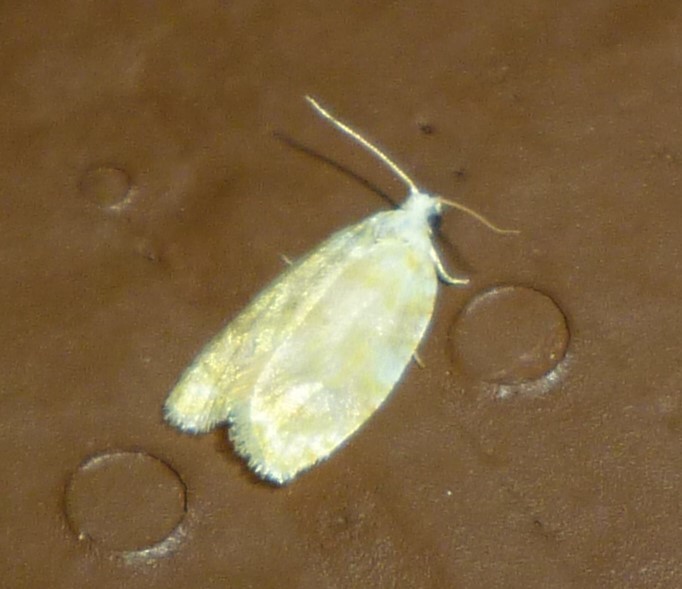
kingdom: Animalia
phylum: Arthropoda
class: Insecta
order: Lepidoptera
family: Tortricidae
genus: Acleris
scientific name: Acleris semipurpurana
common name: Oak leaftier moth
